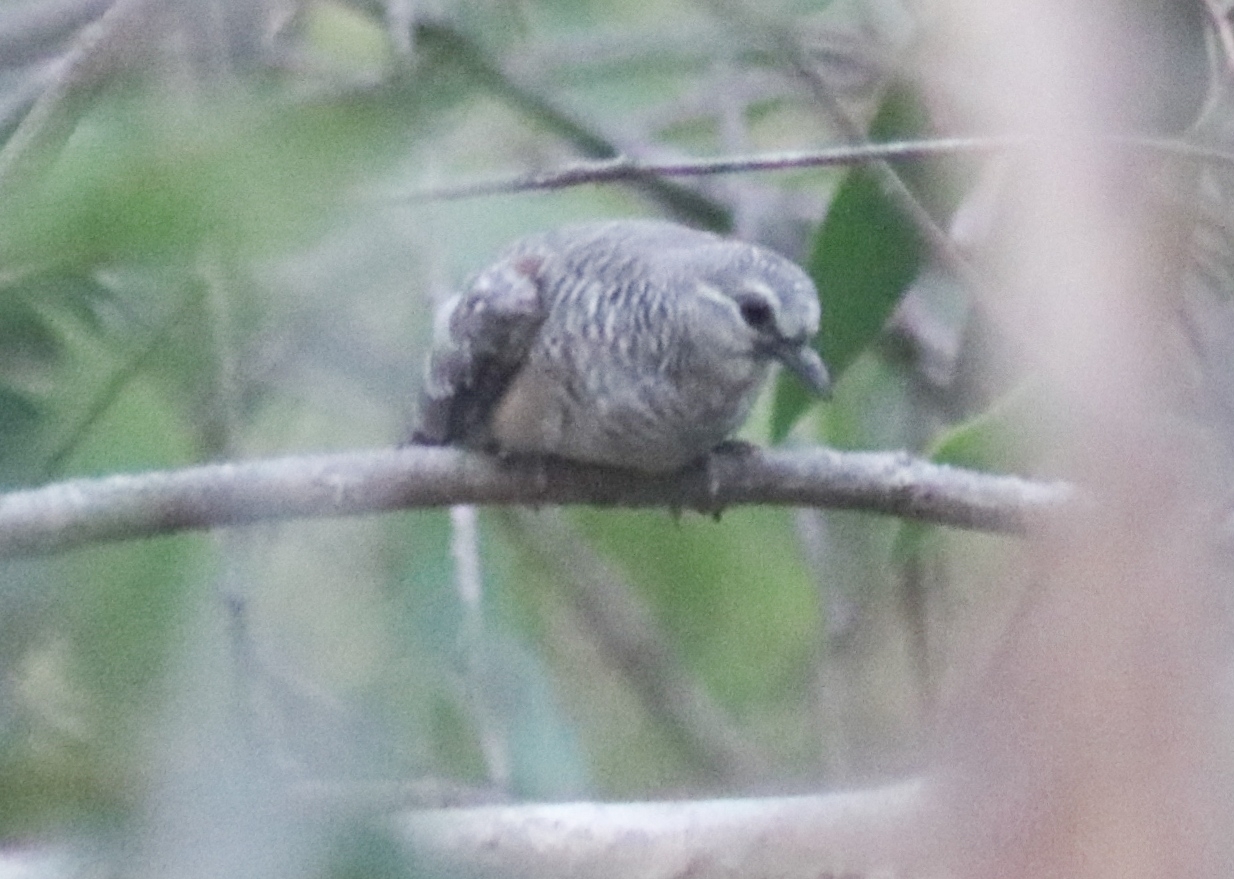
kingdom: Animalia
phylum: Chordata
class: Aves
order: Columbiformes
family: Columbidae
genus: Geopelia
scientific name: Geopelia placida
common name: Peaceful dove
